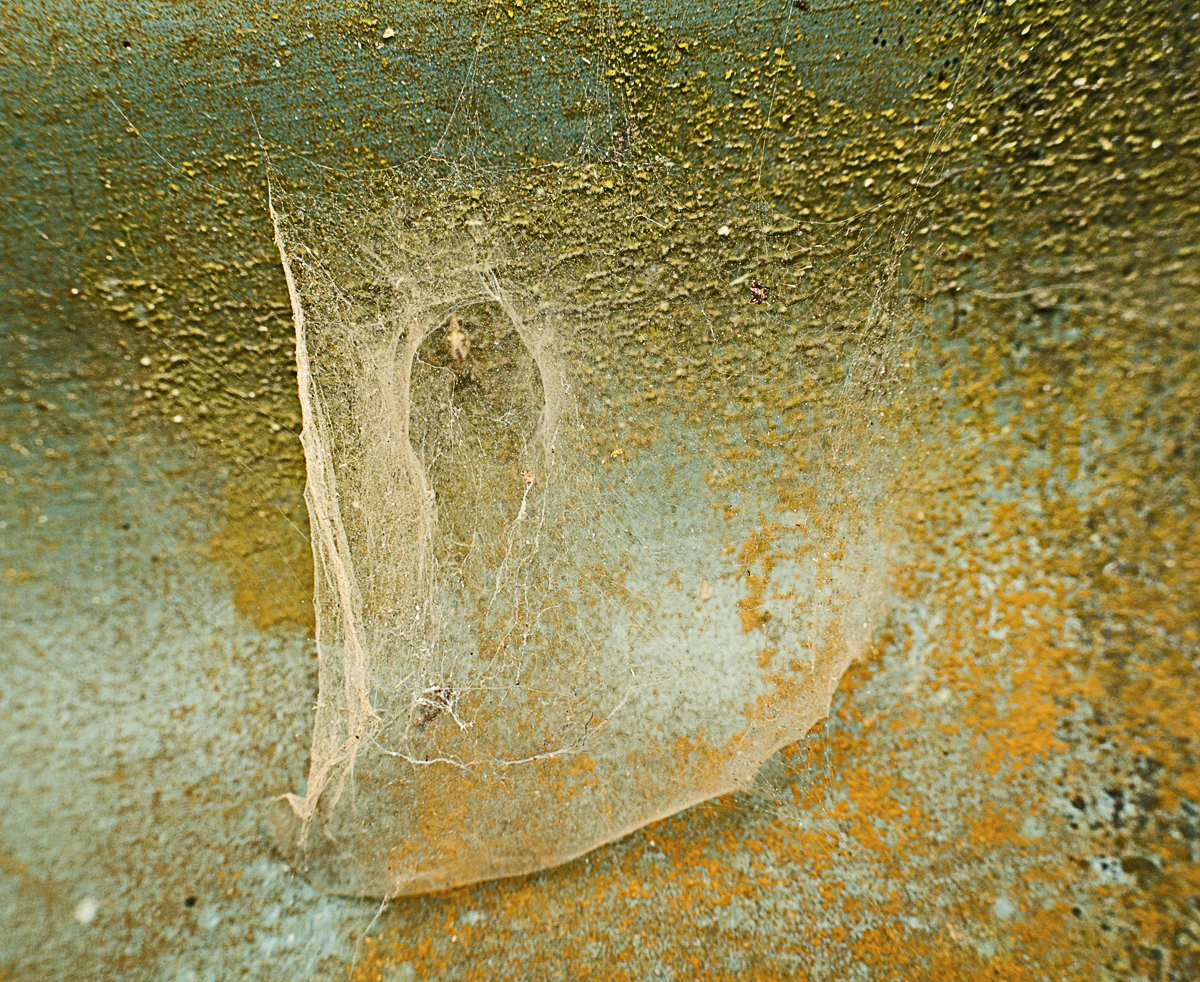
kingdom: Animalia
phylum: Arthropoda
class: Arachnida
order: Araneae
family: Stiphidiidae
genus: Stiphidion
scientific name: Stiphidion facetum
